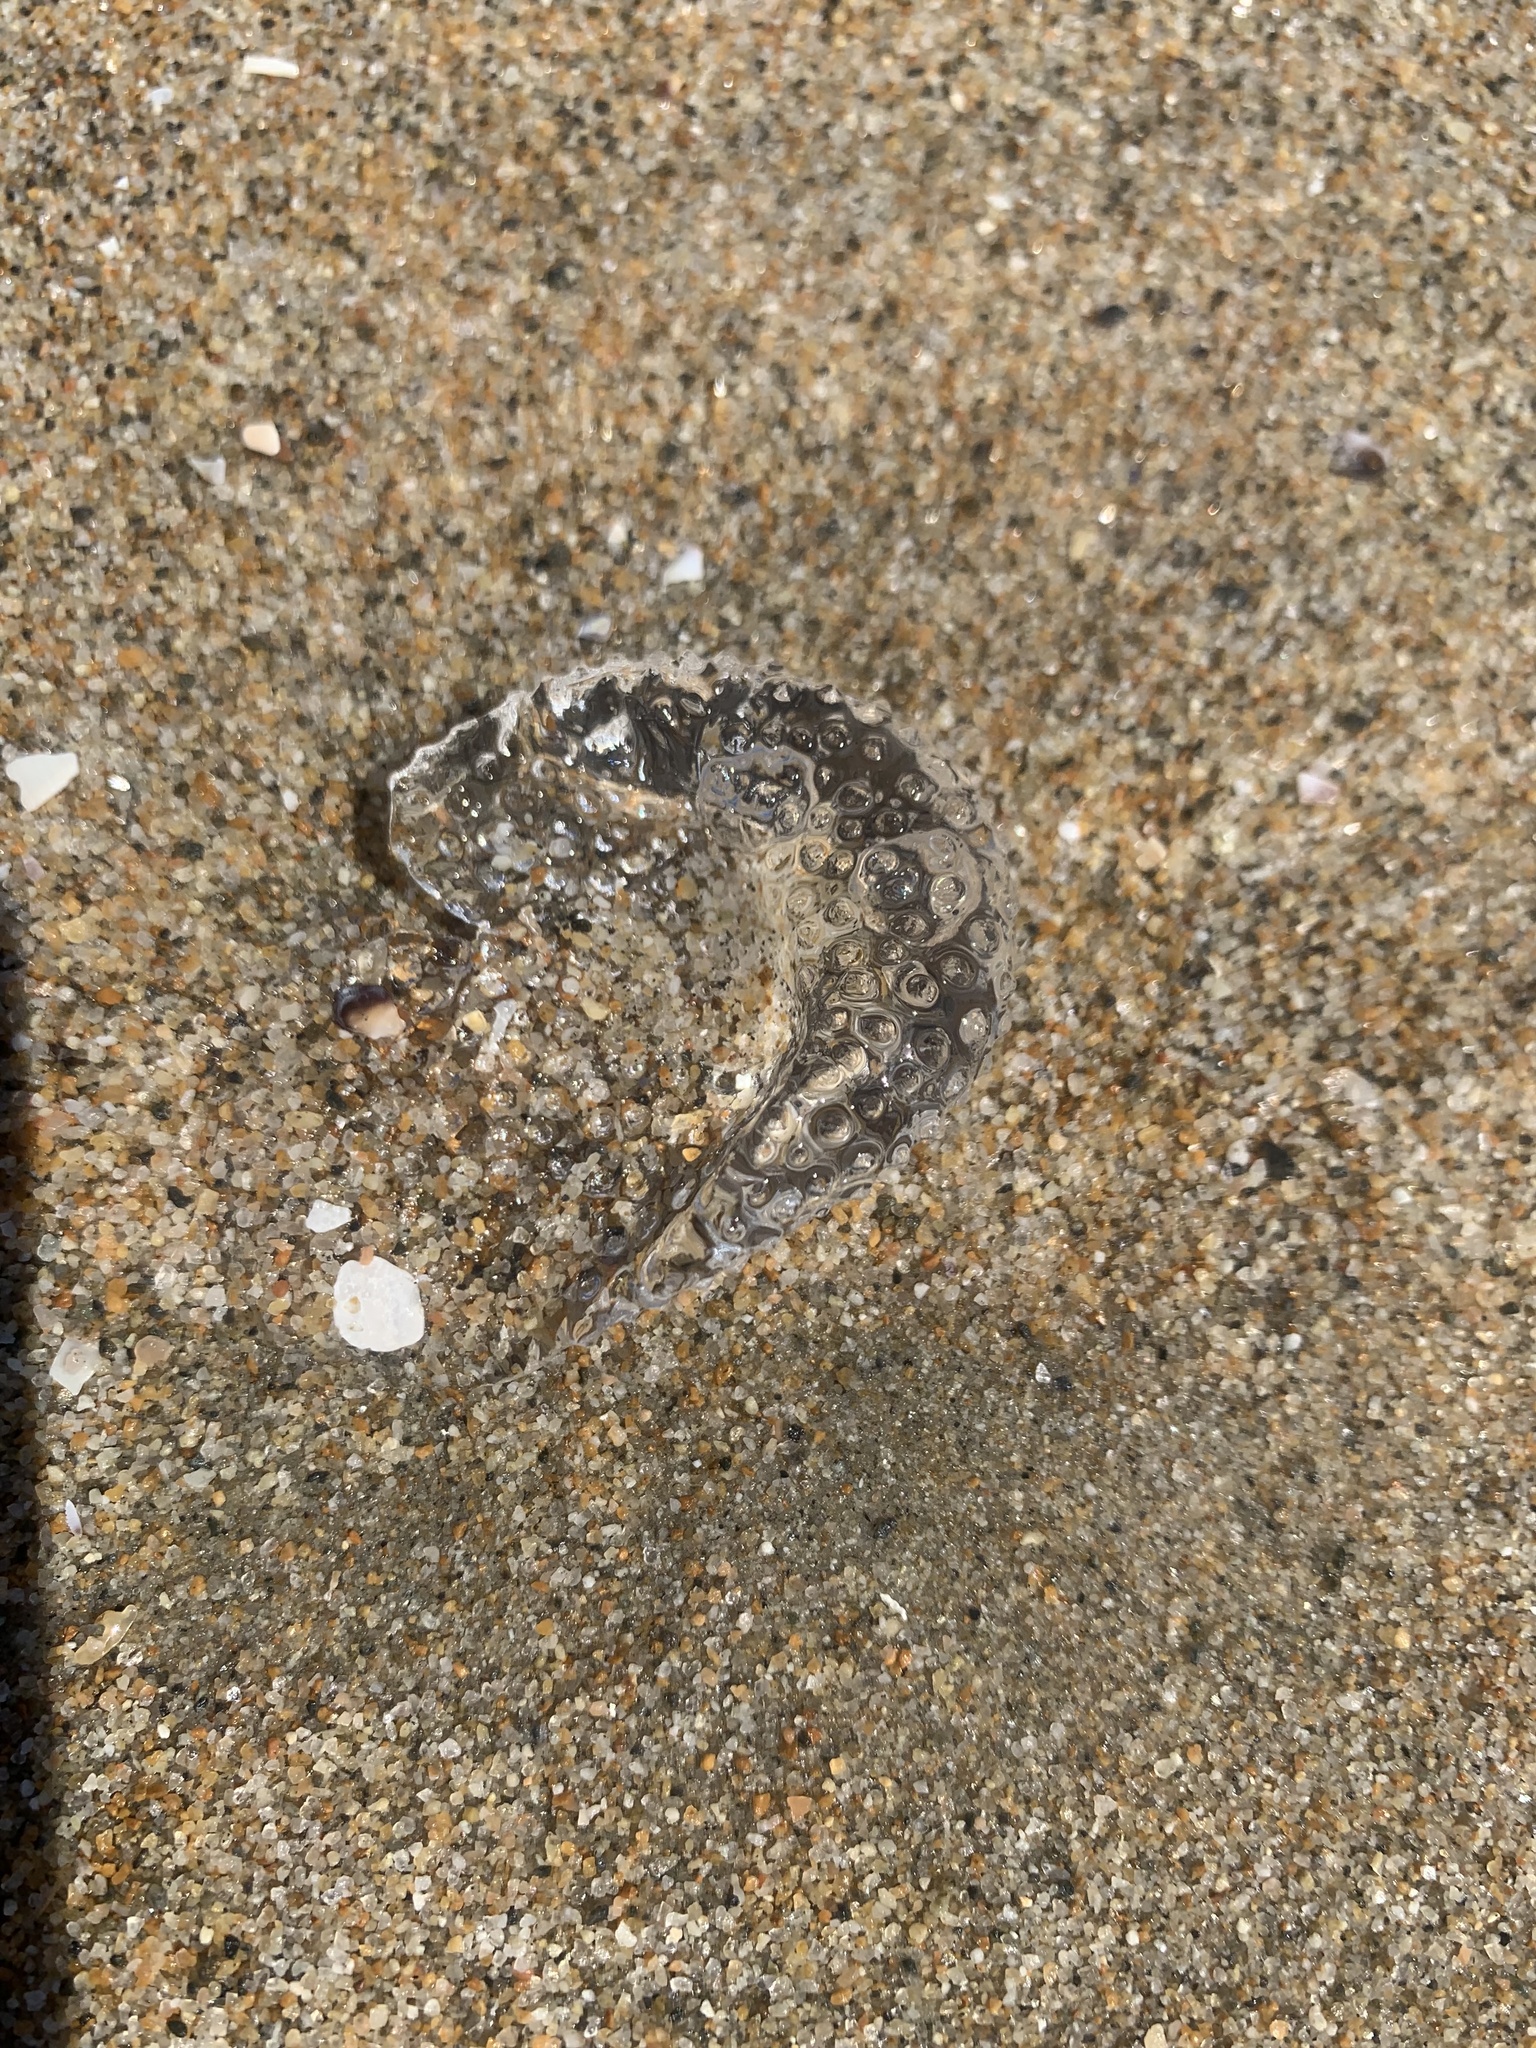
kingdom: Animalia
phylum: Mollusca
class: Gastropoda
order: Pteropoda
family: Cymbuliidae
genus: Corolla
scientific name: Corolla spectabilis
